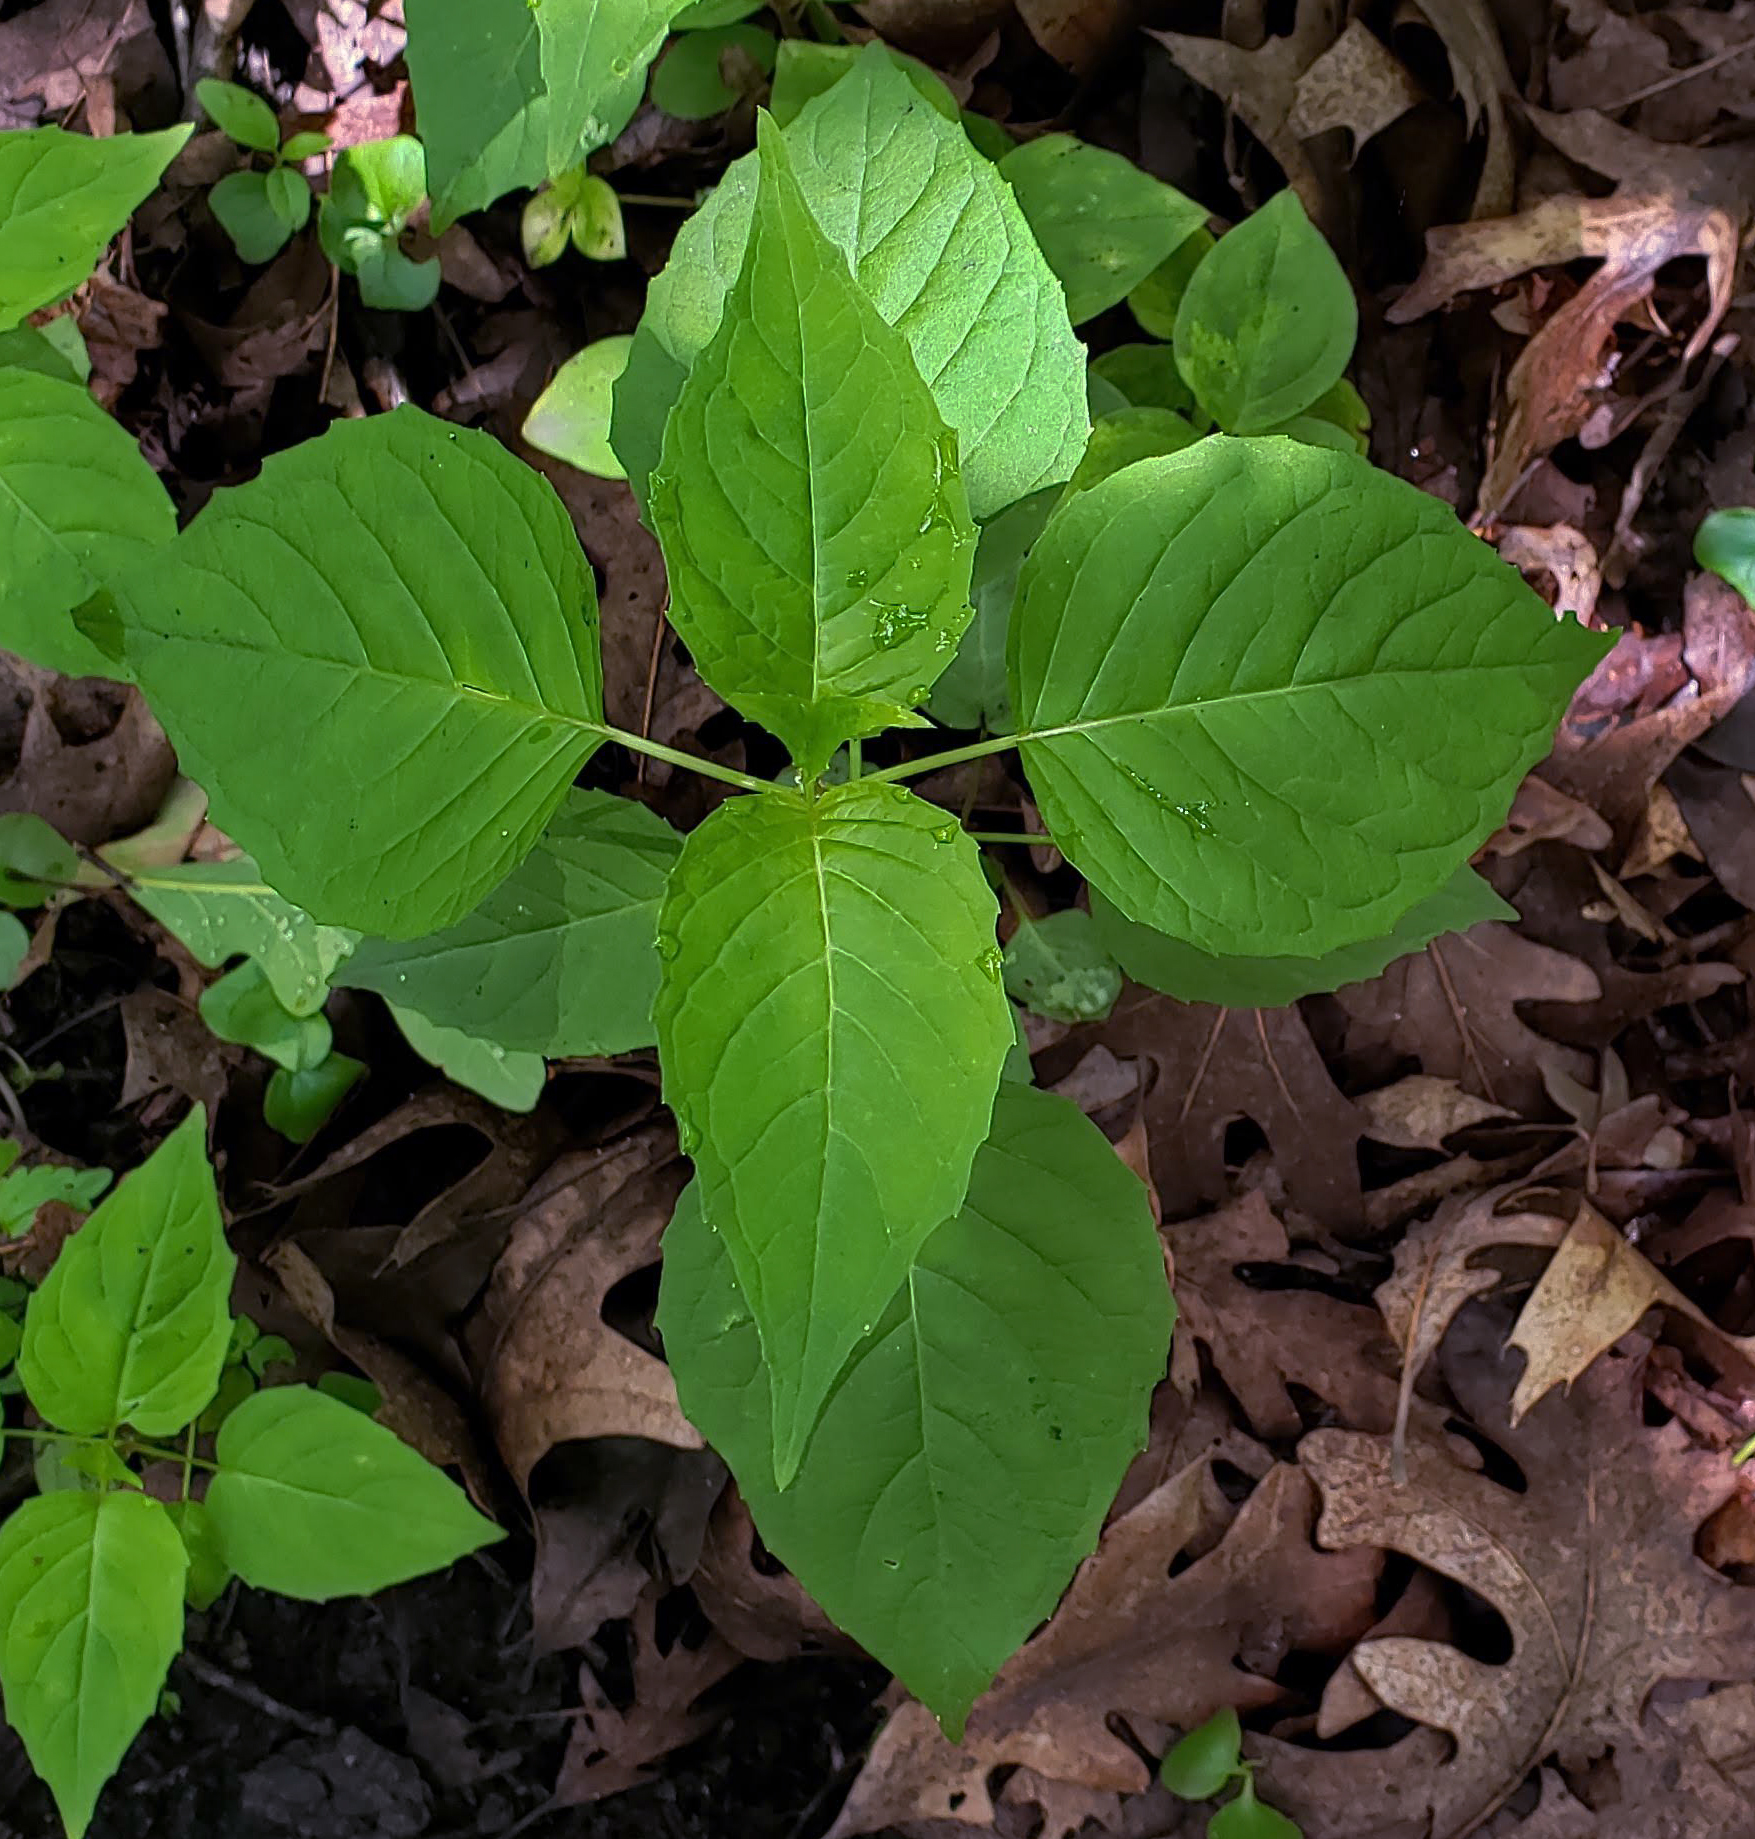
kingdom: Plantae
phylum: Tracheophyta
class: Magnoliopsida
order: Myrtales
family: Onagraceae
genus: Circaea
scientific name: Circaea canadensis
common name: Broad-leaved enchanter's nightshade
